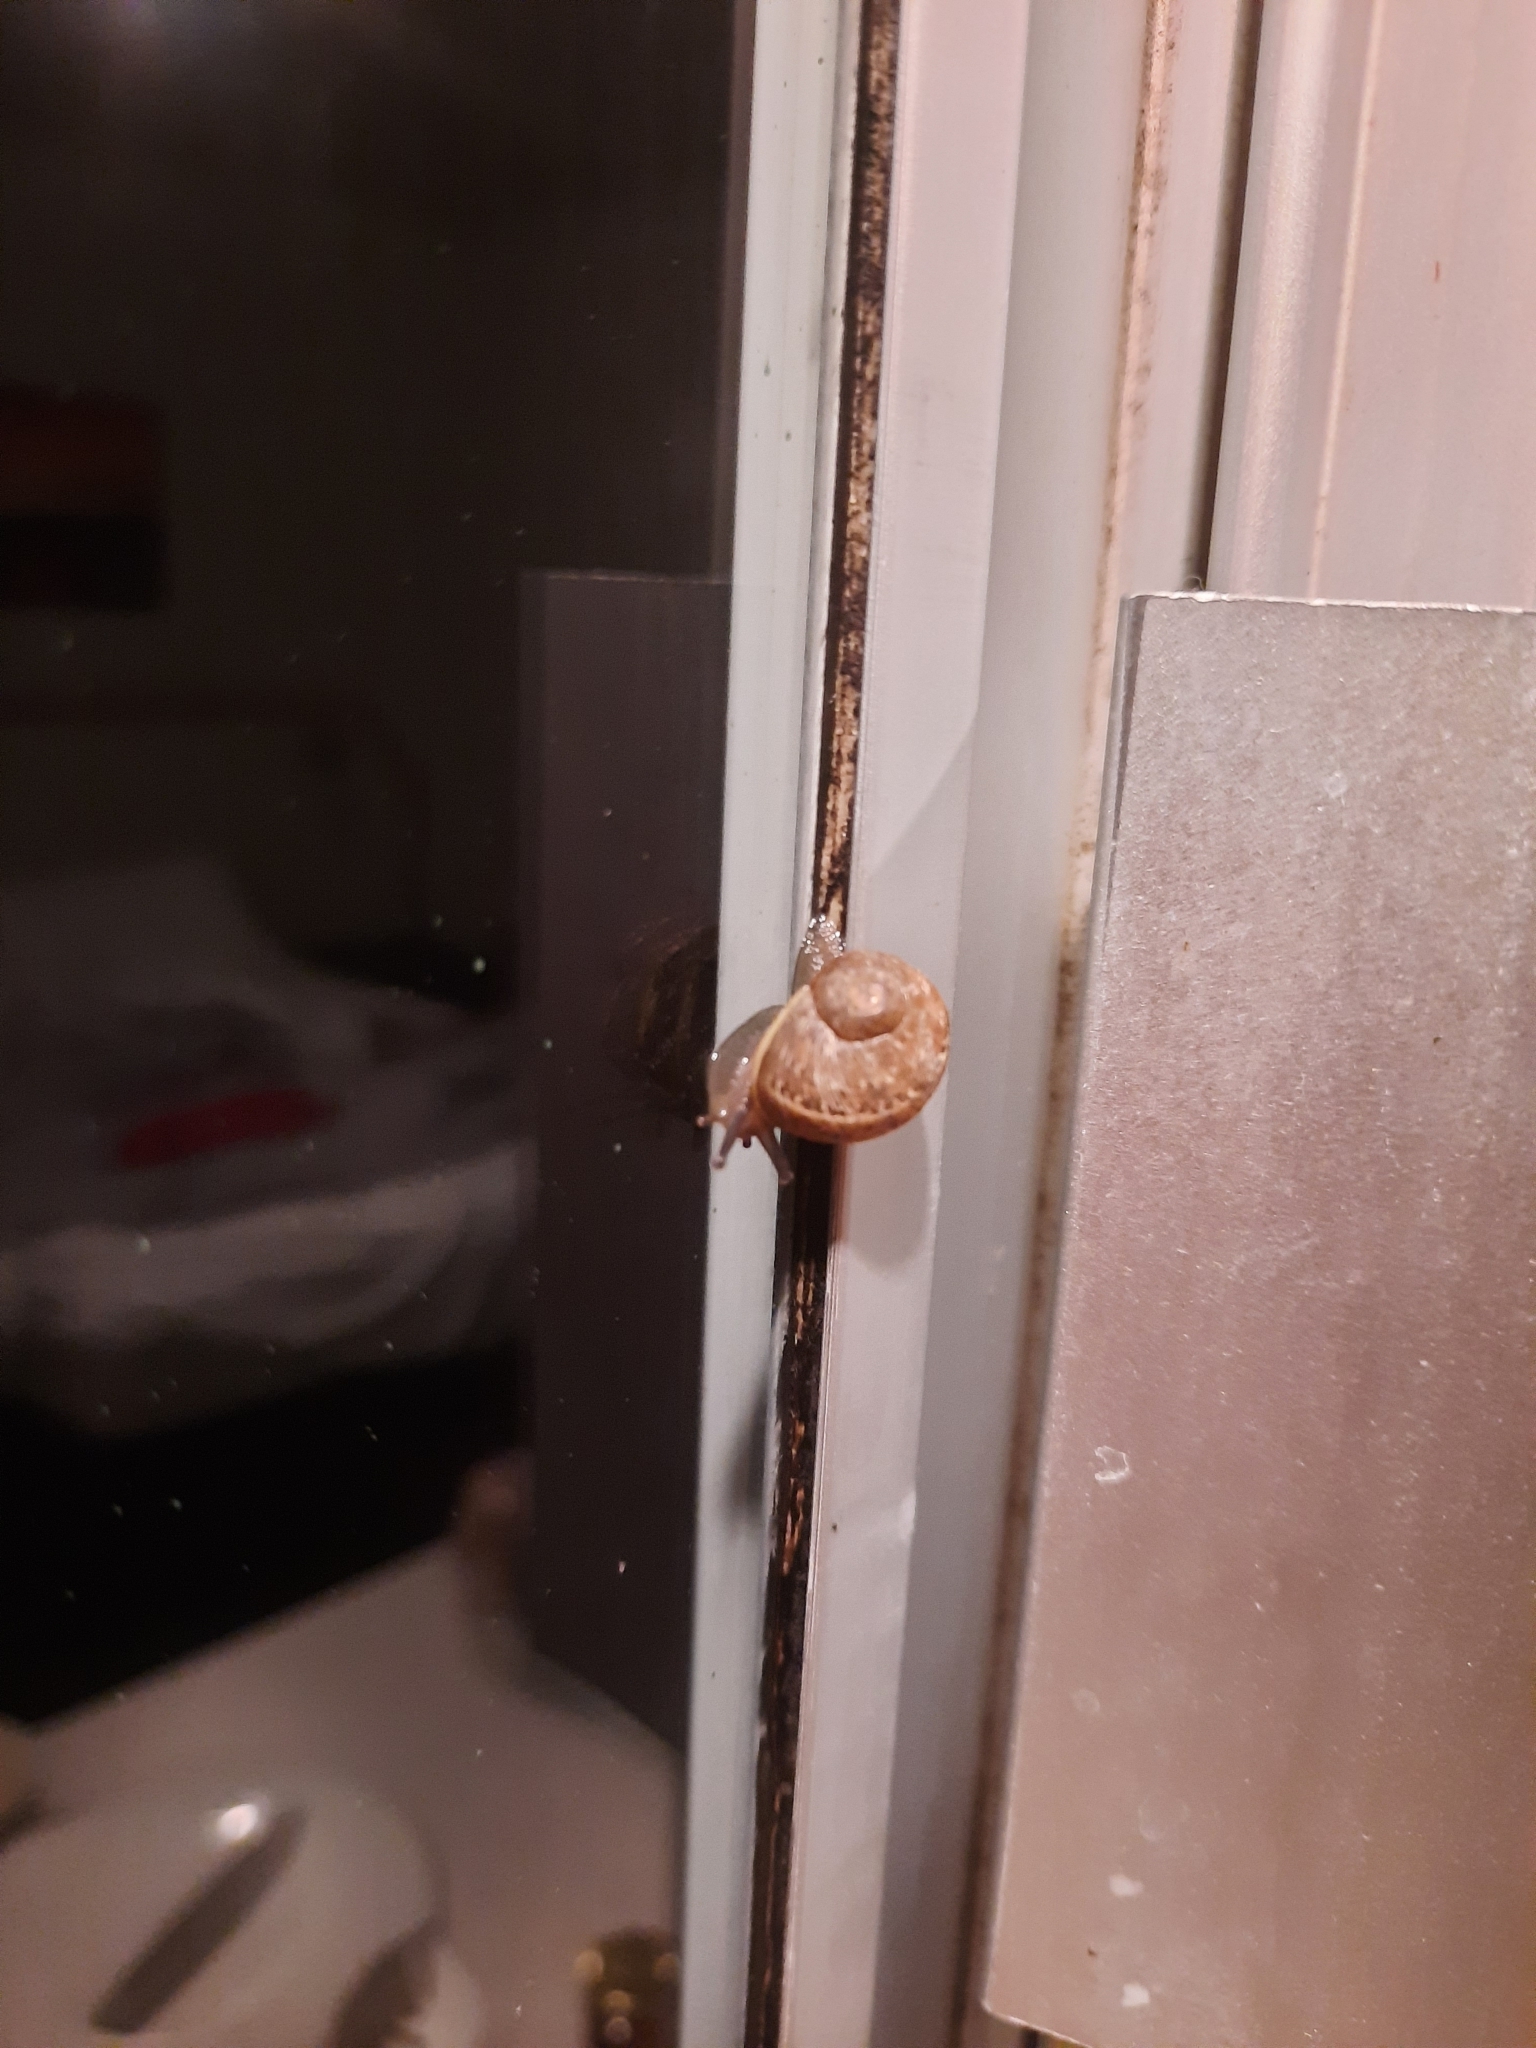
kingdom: Animalia
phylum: Mollusca
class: Gastropoda
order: Stylommatophora
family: Helicidae
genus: Cornu
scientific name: Cornu aspersum
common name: Brown garden snail
